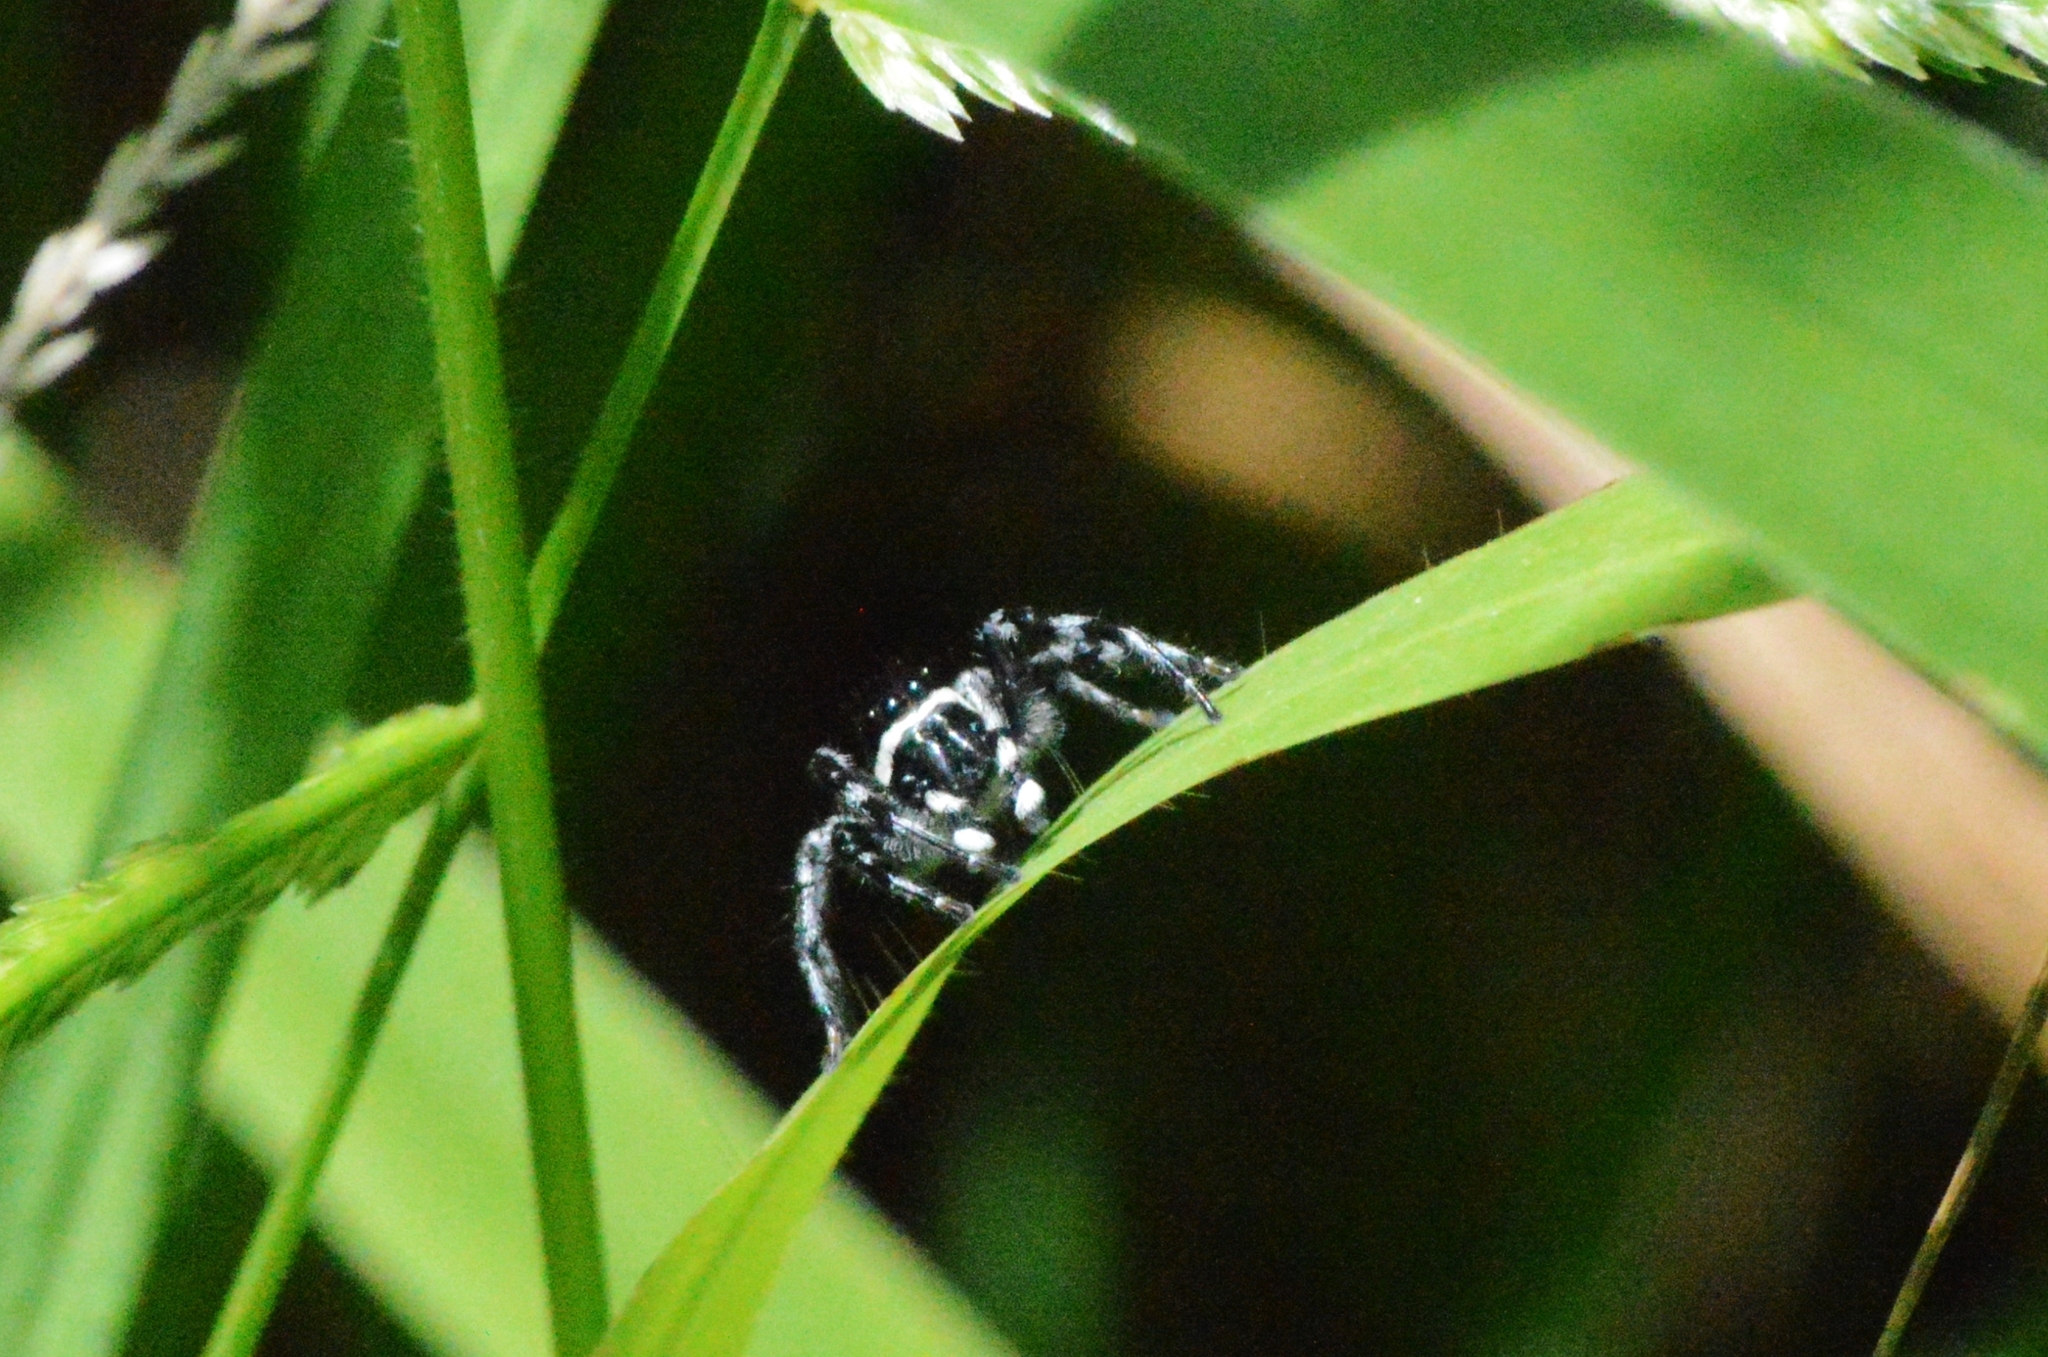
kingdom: Animalia
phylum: Arthropoda
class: Arachnida
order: Araneae
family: Salticidae
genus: Phiale
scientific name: Phiale gratiosa
